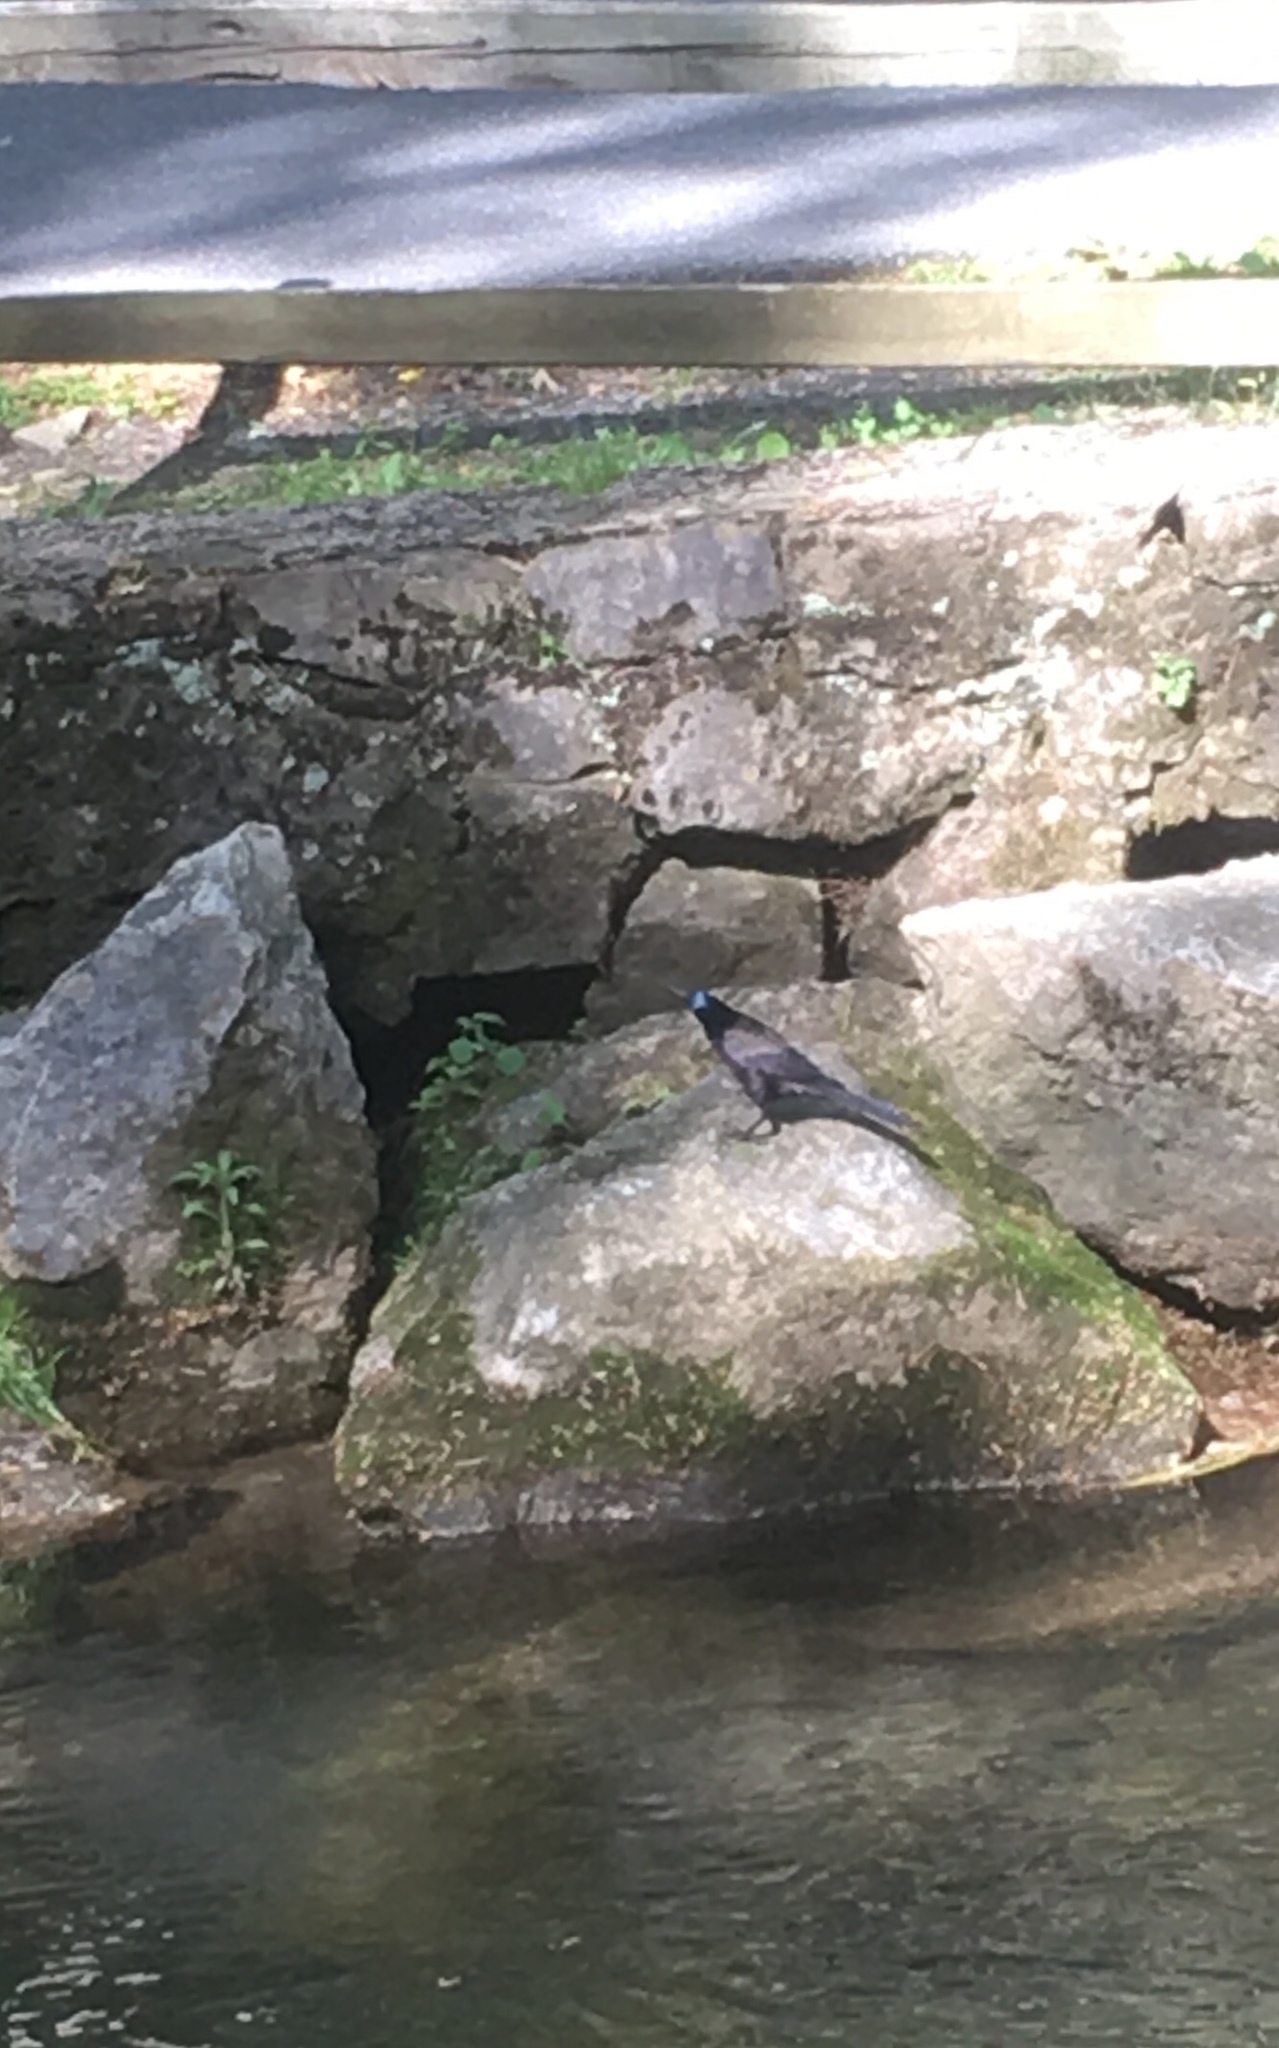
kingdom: Animalia
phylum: Chordata
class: Aves
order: Passeriformes
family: Icteridae
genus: Quiscalus
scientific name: Quiscalus quiscula
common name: Common grackle
